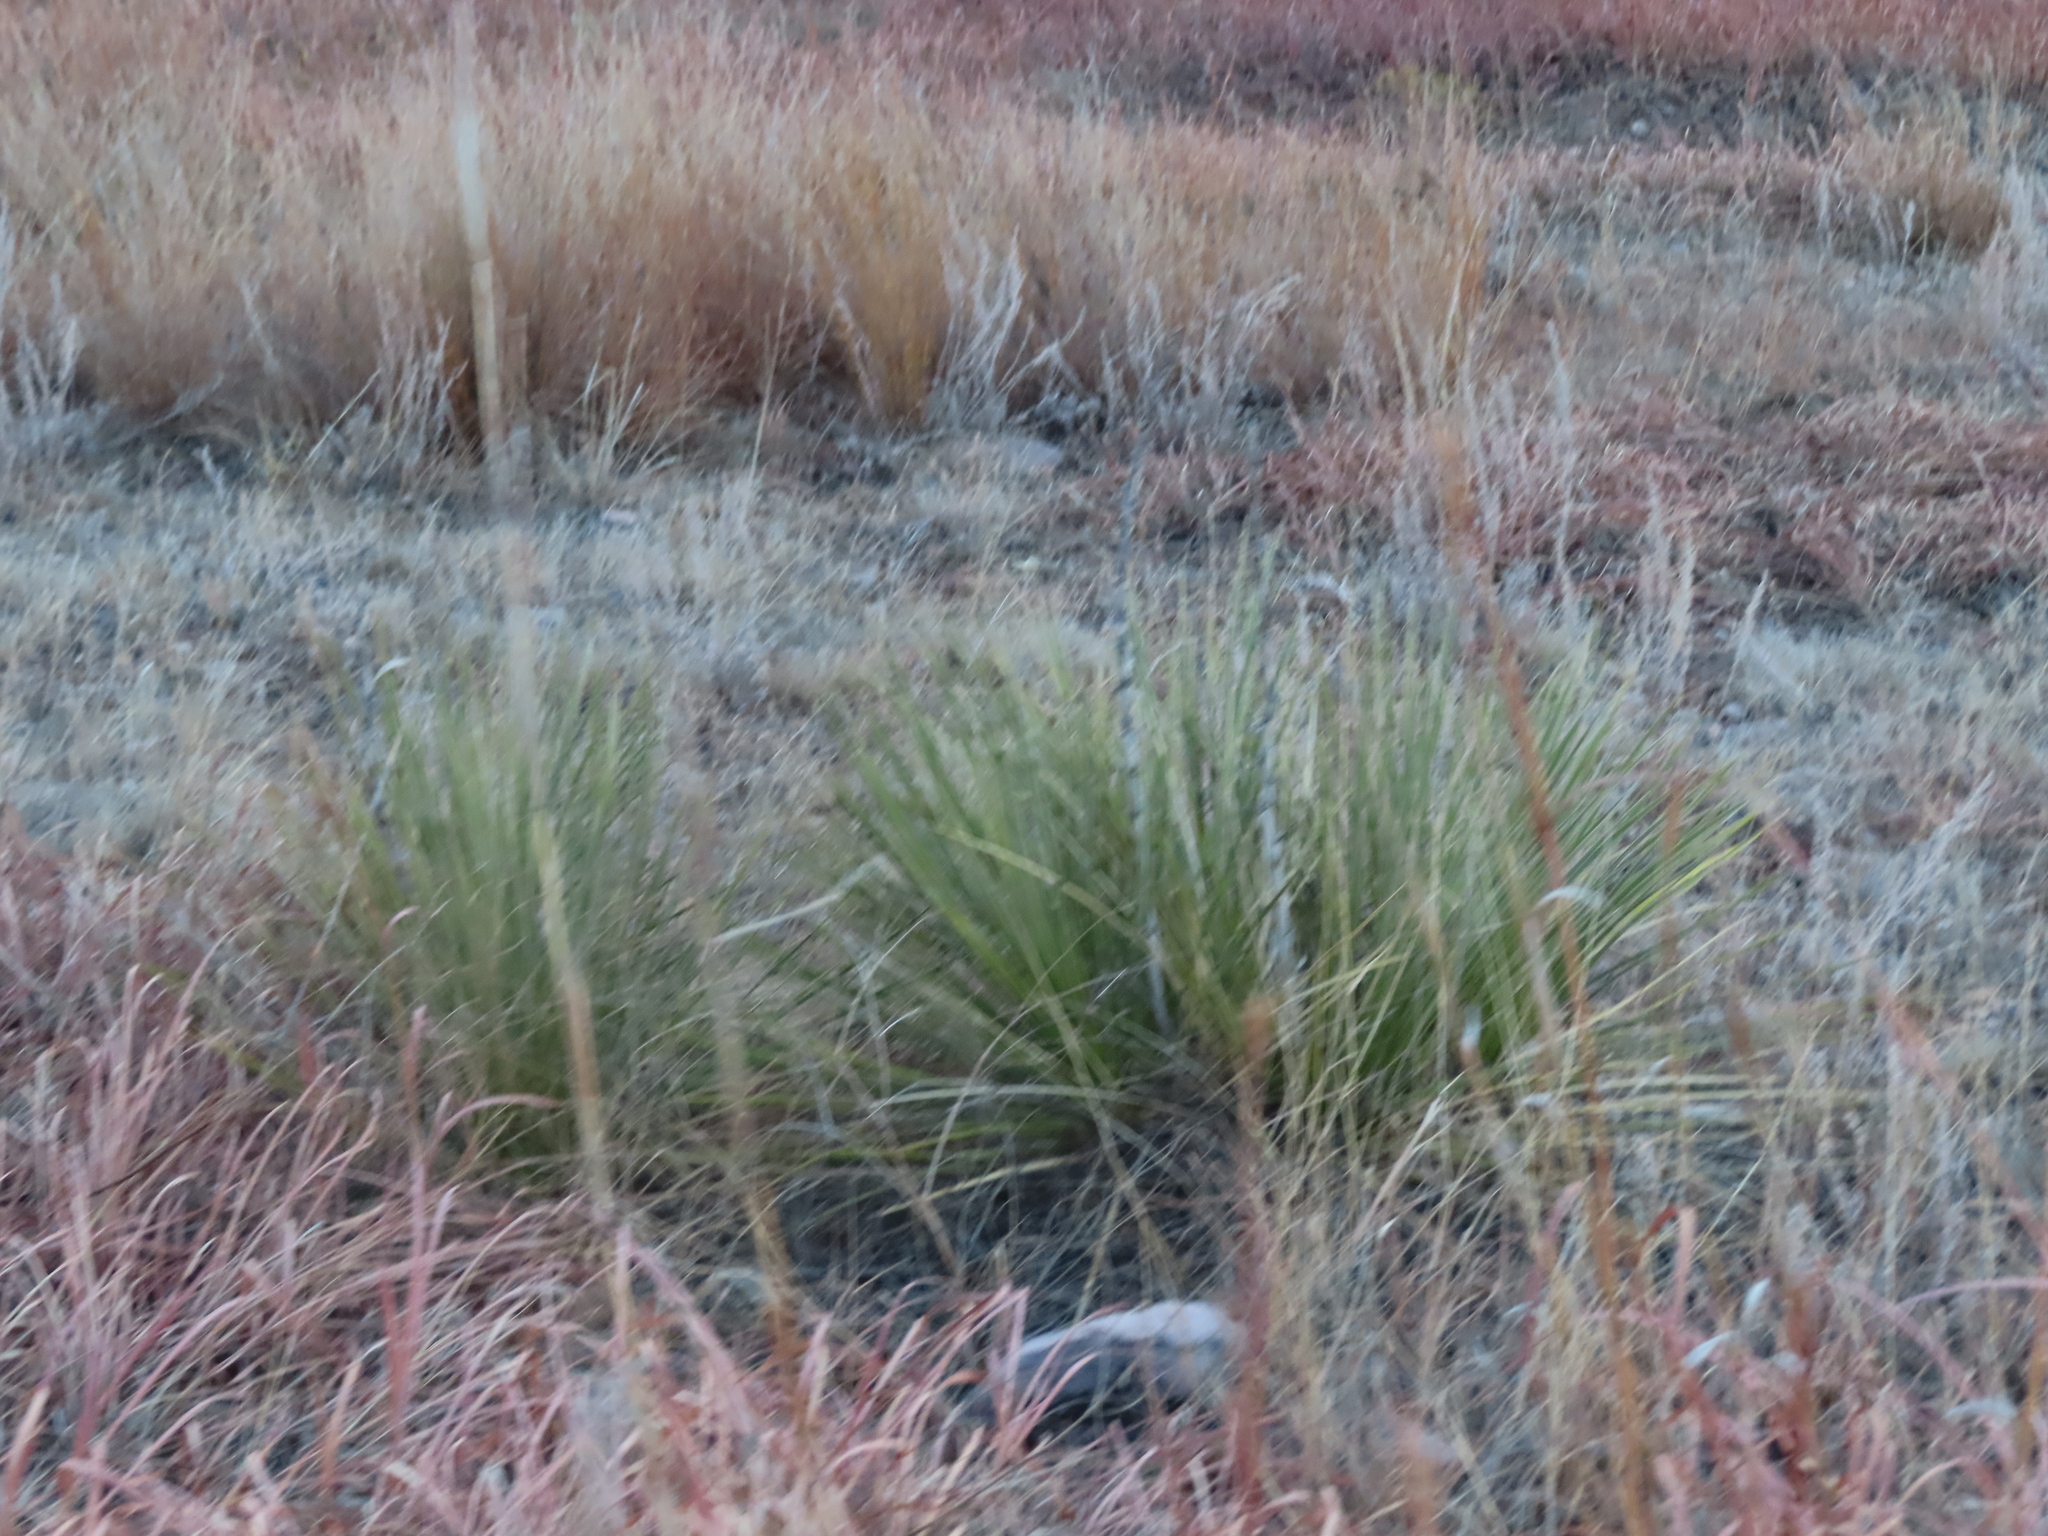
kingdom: Plantae
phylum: Tracheophyta
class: Liliopsida
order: Asparagales
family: Asparagaceae
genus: Yucca
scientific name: Yucca glauca
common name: Great plains yucca
